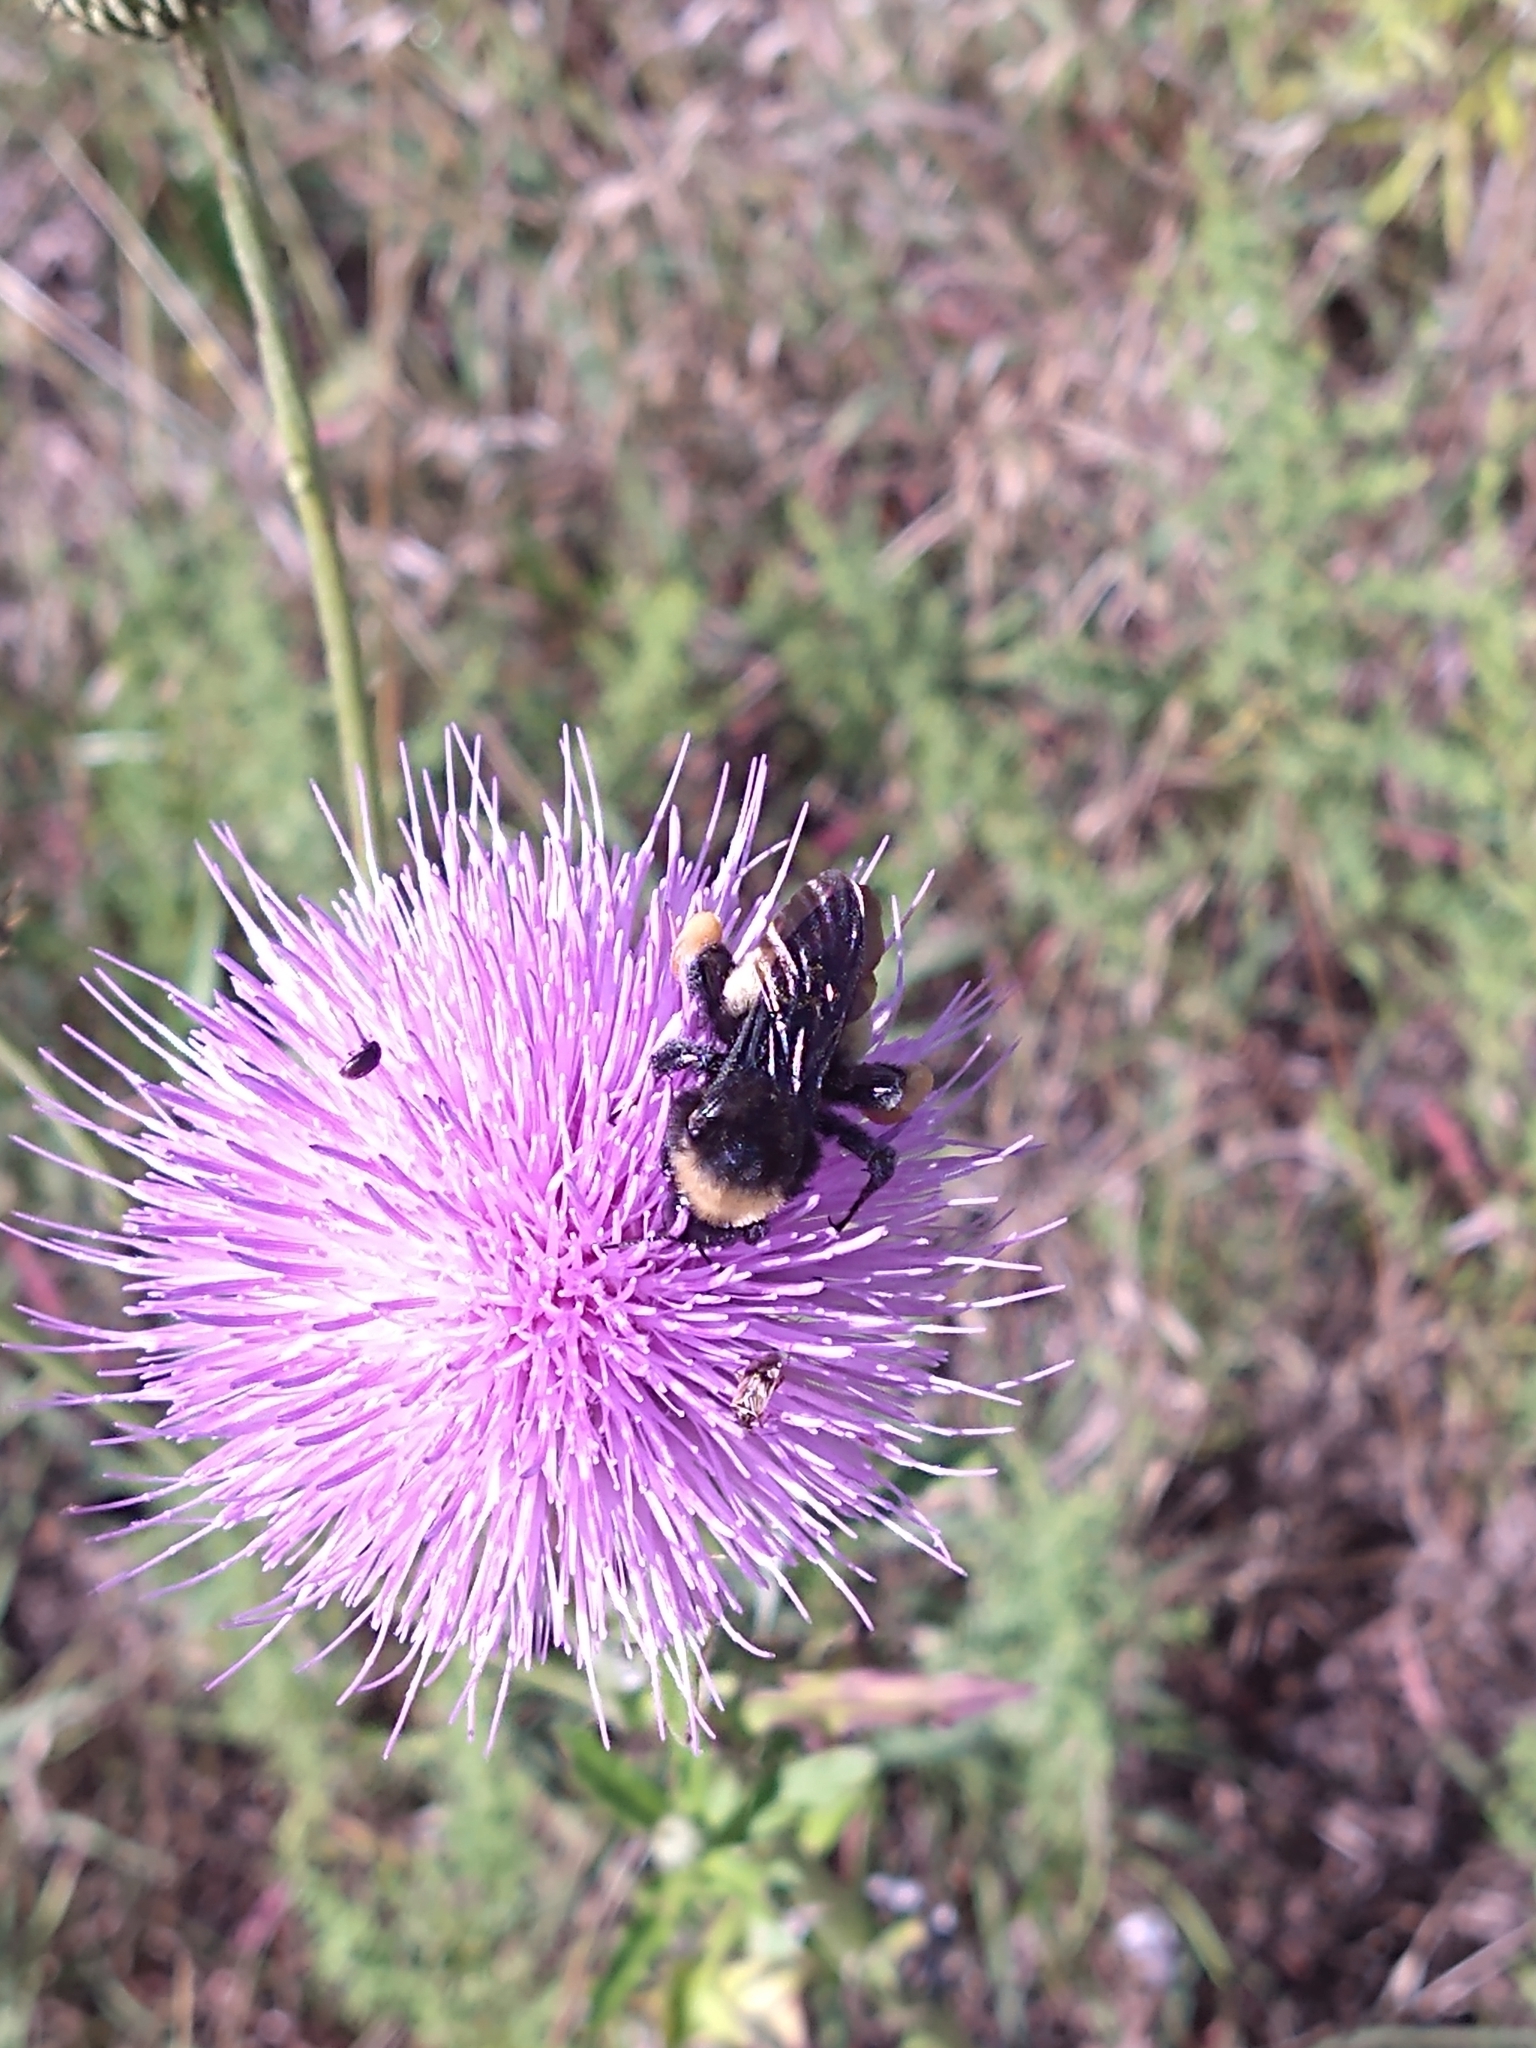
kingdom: Animalia
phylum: Arthropoda
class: Insecta
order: Hymenoptera
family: Apidae
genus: Bombus
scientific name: Bombus pensylvanicus
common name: Bumble bee
